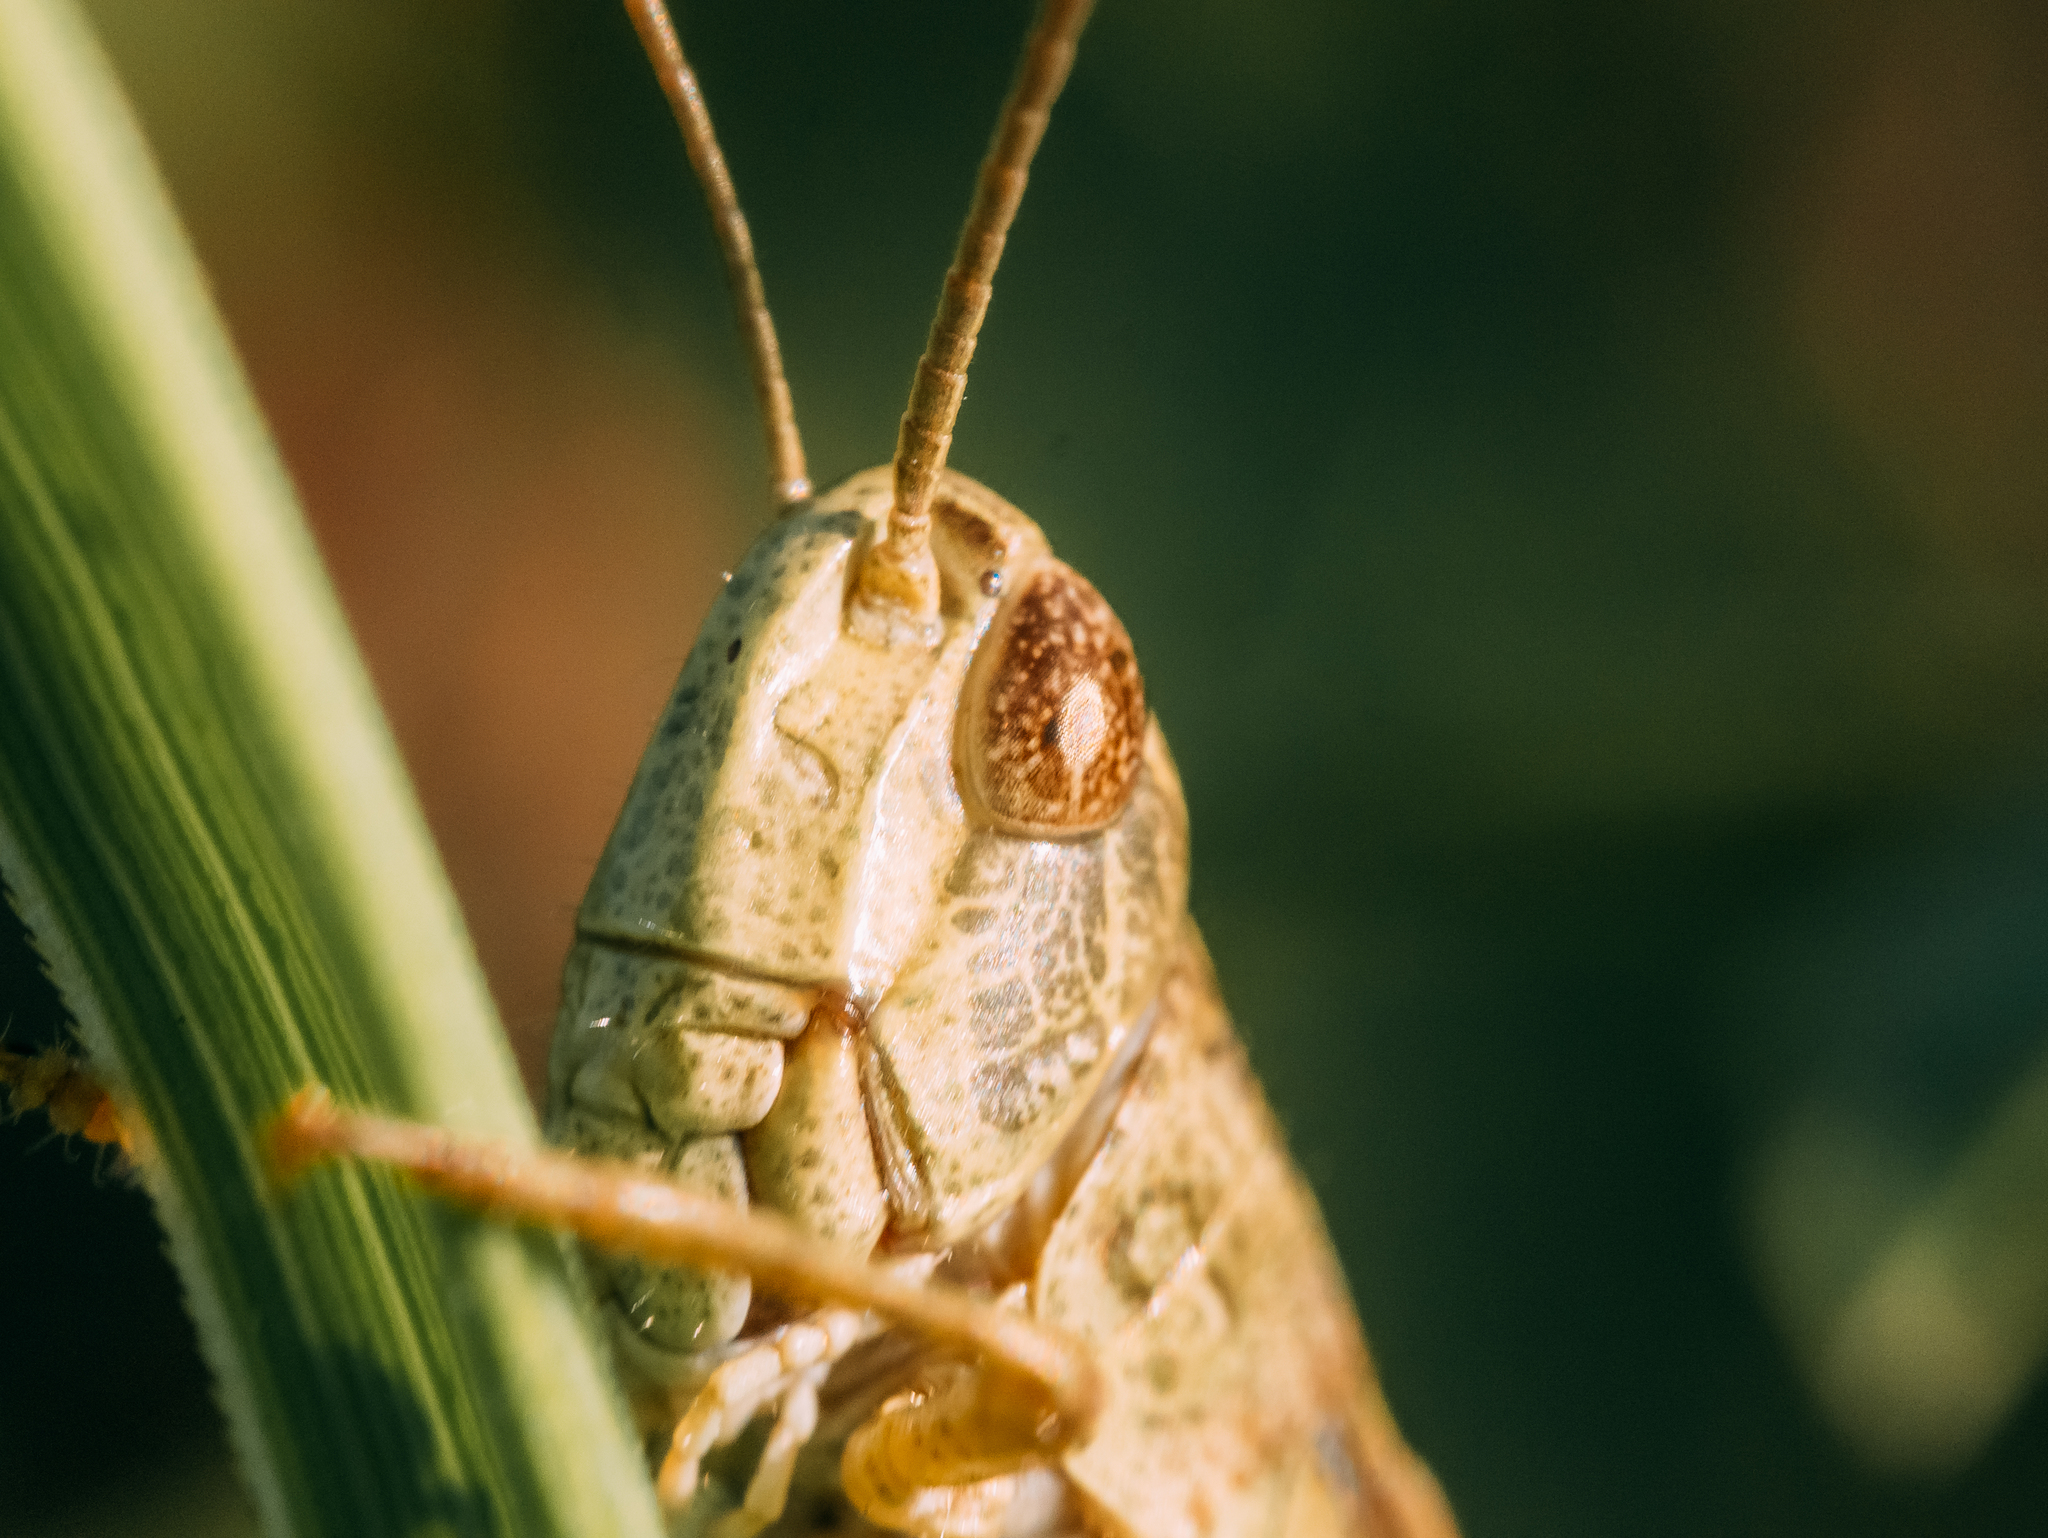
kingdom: Animalia
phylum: Arthropoda
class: Insecta
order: Orthoptera
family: Acrididae
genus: Chorthippus
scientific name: Chorthippus apricarius
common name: Upland field grasshopper
